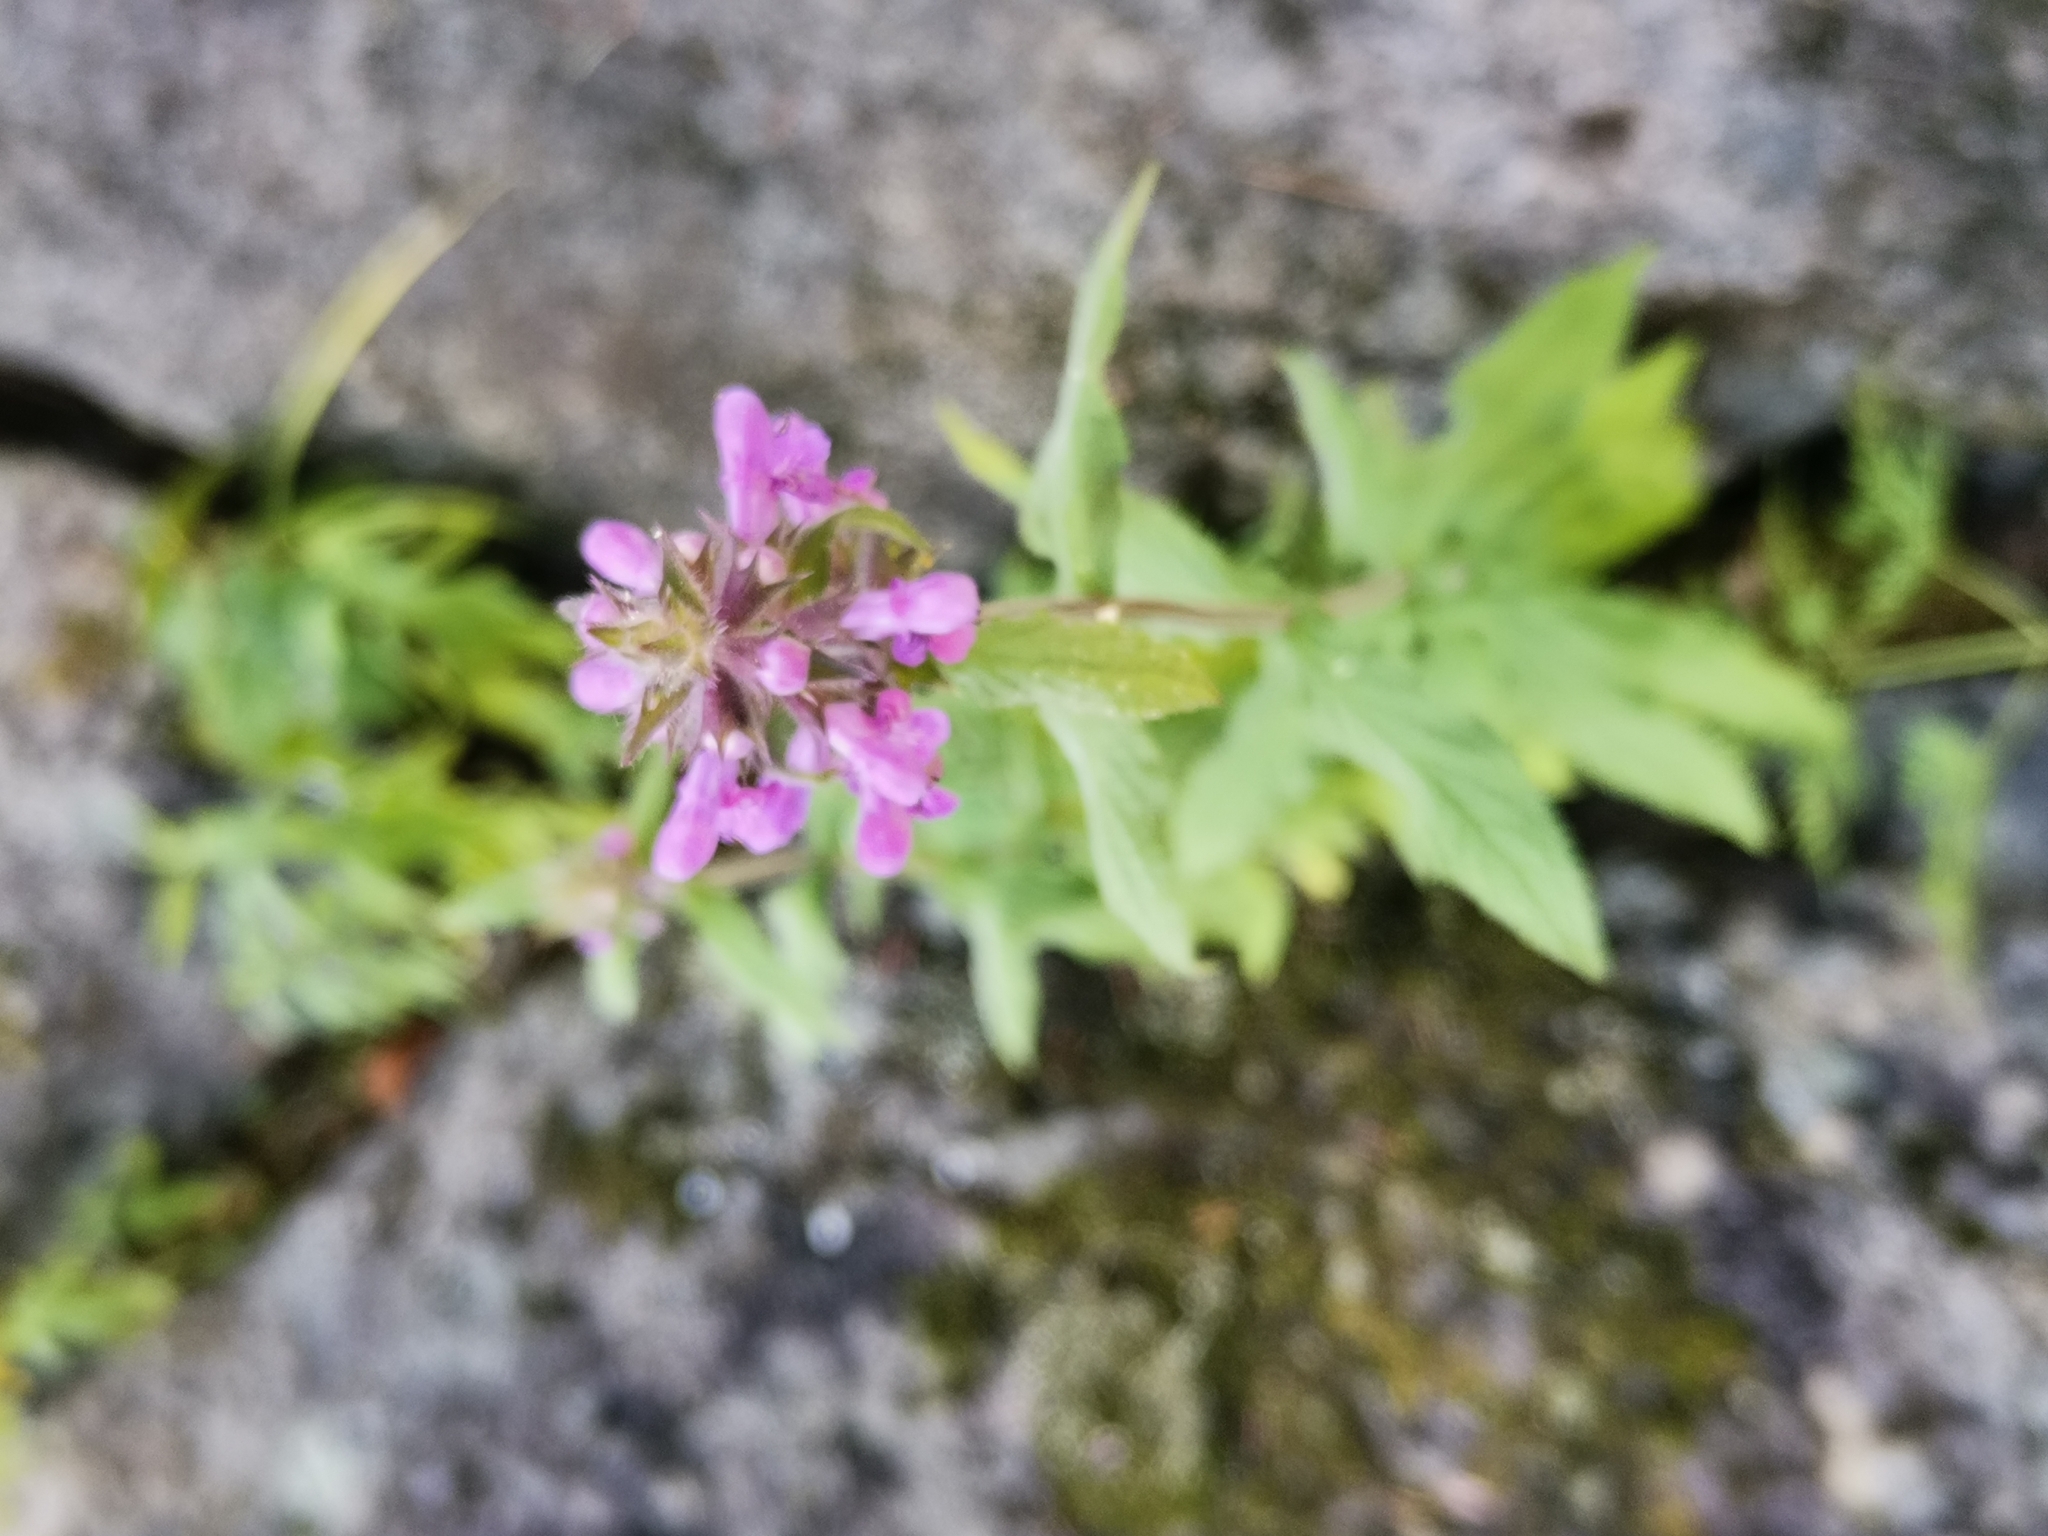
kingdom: Plantae
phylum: Tracheophyta
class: Magnoliopsida
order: Lamiales
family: Lamiaceae
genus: Stachys
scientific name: Stachys palustris
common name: Marsh woundwort
